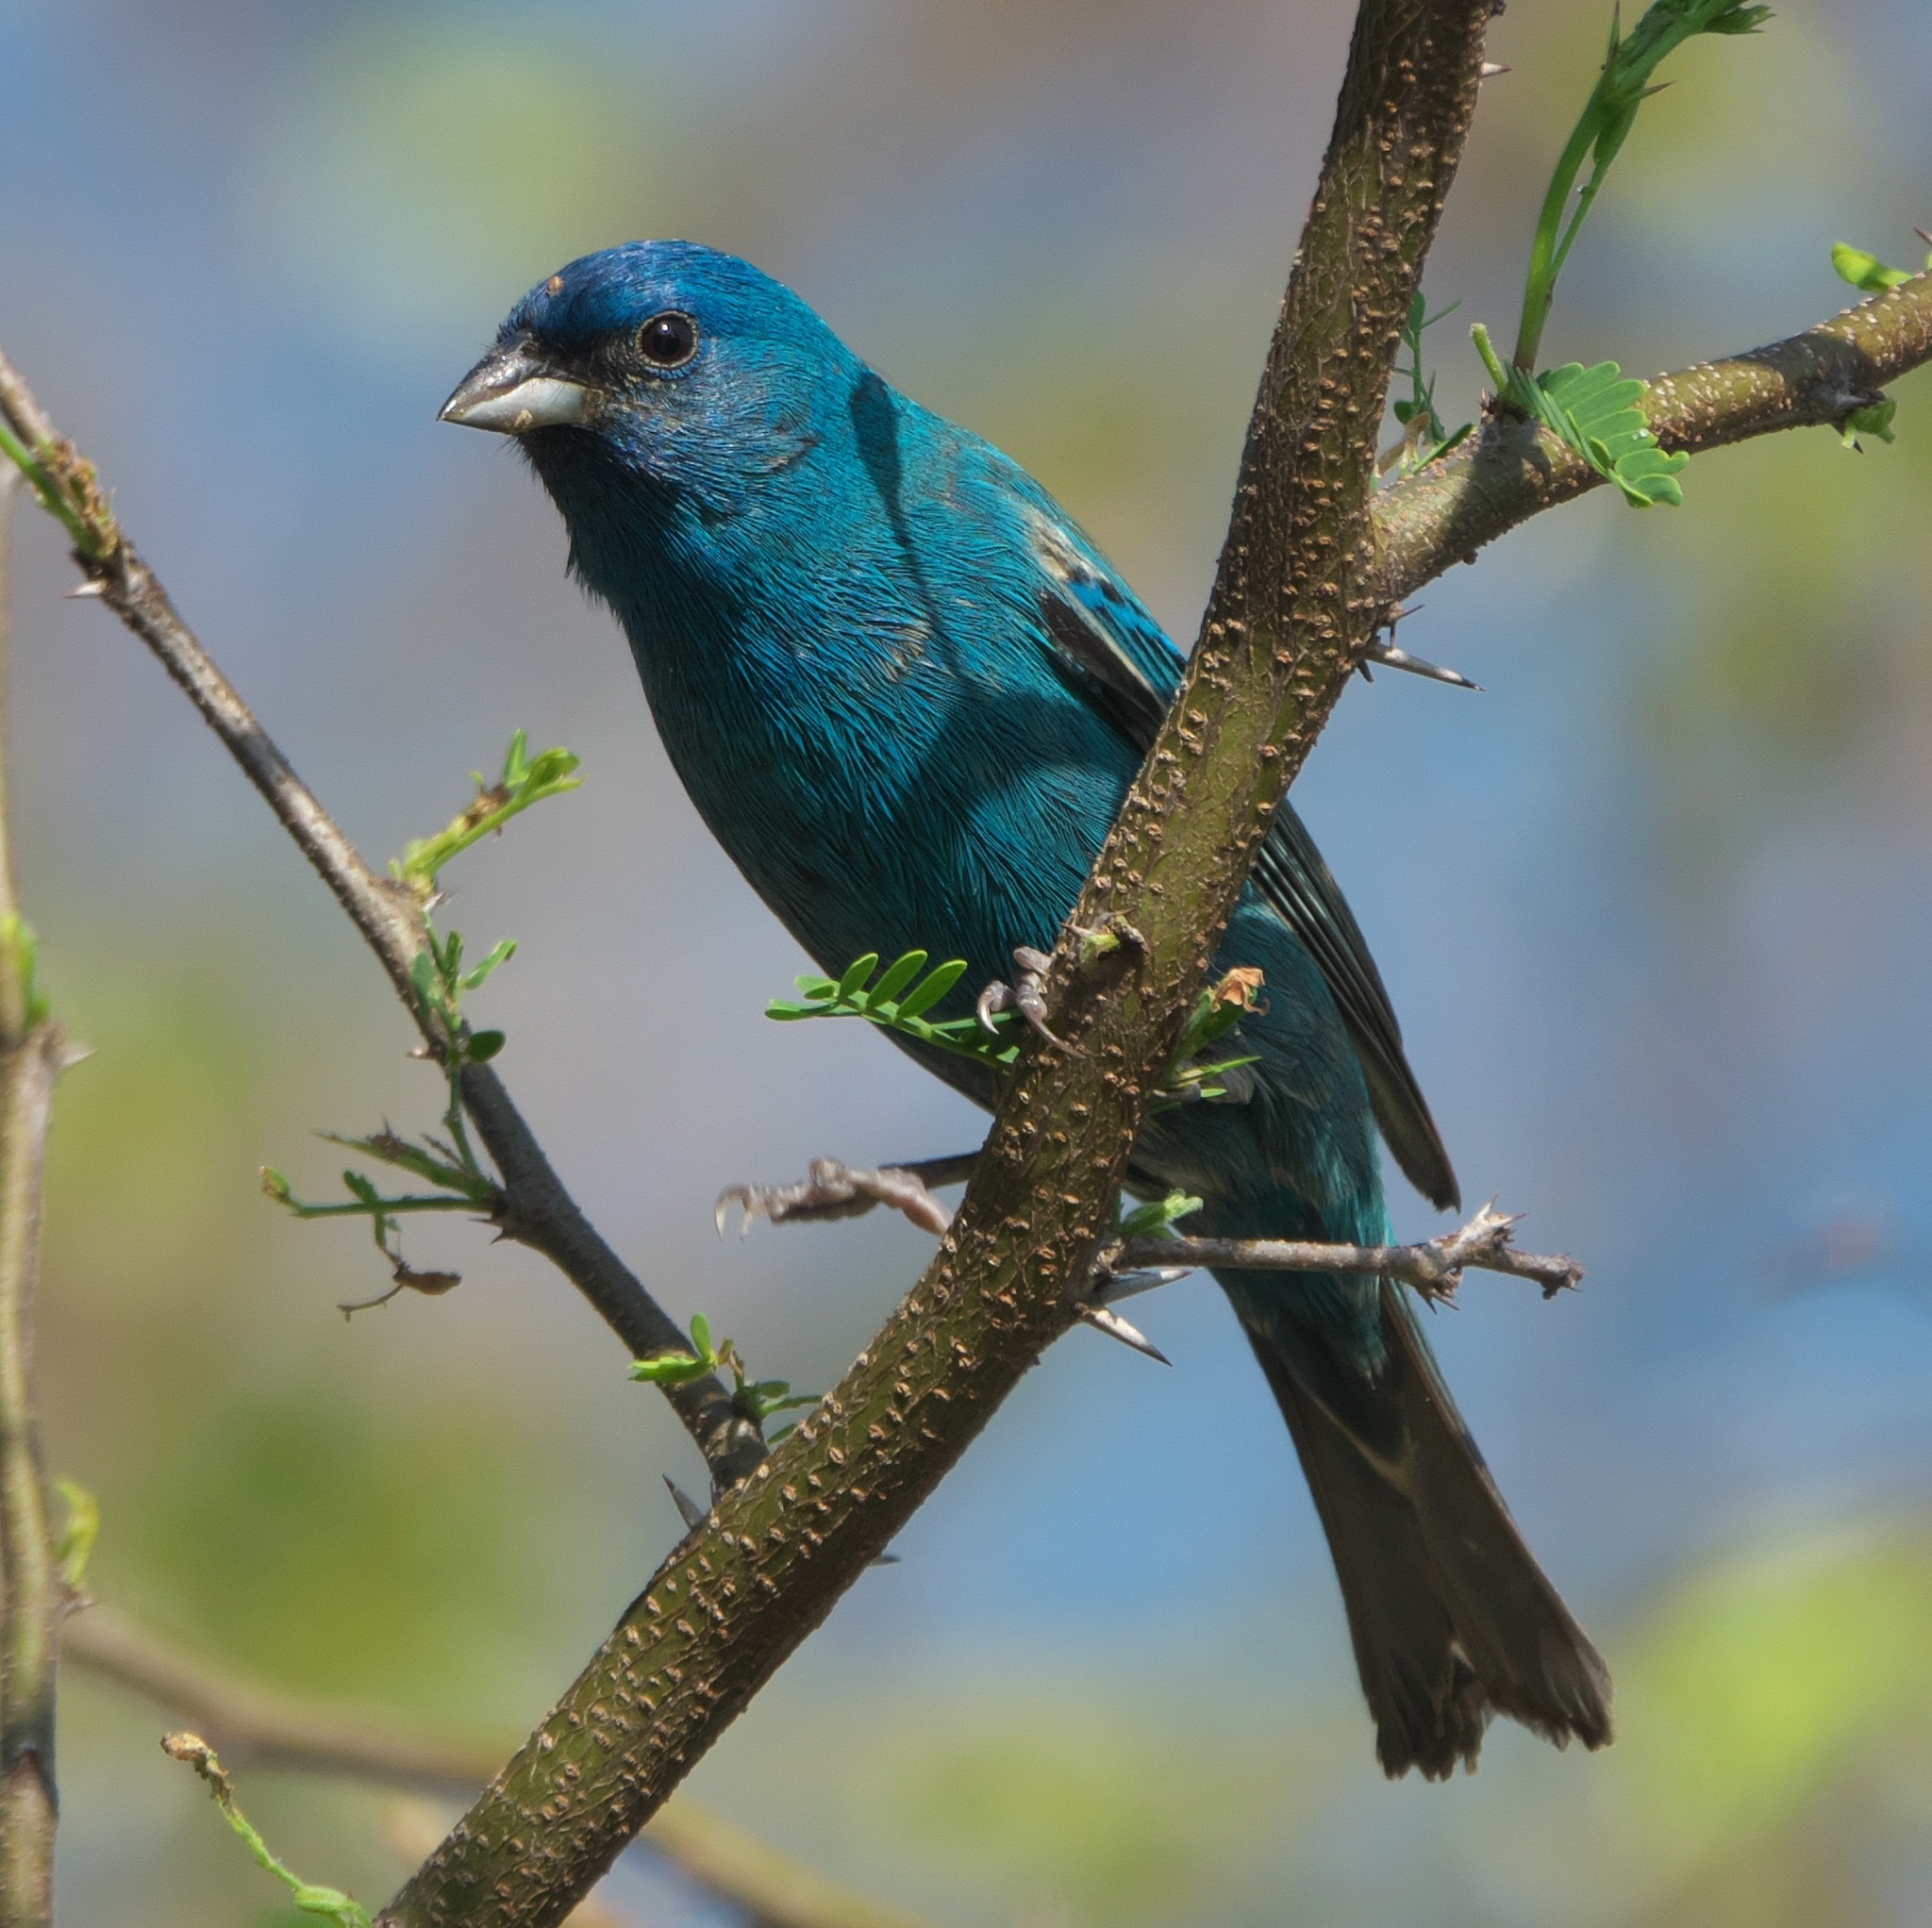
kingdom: Animalia
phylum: Chordata
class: Aves
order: Passeriformes
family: Cardinalidae
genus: Passerina
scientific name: Passerina cyanea
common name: Indigo bunting
